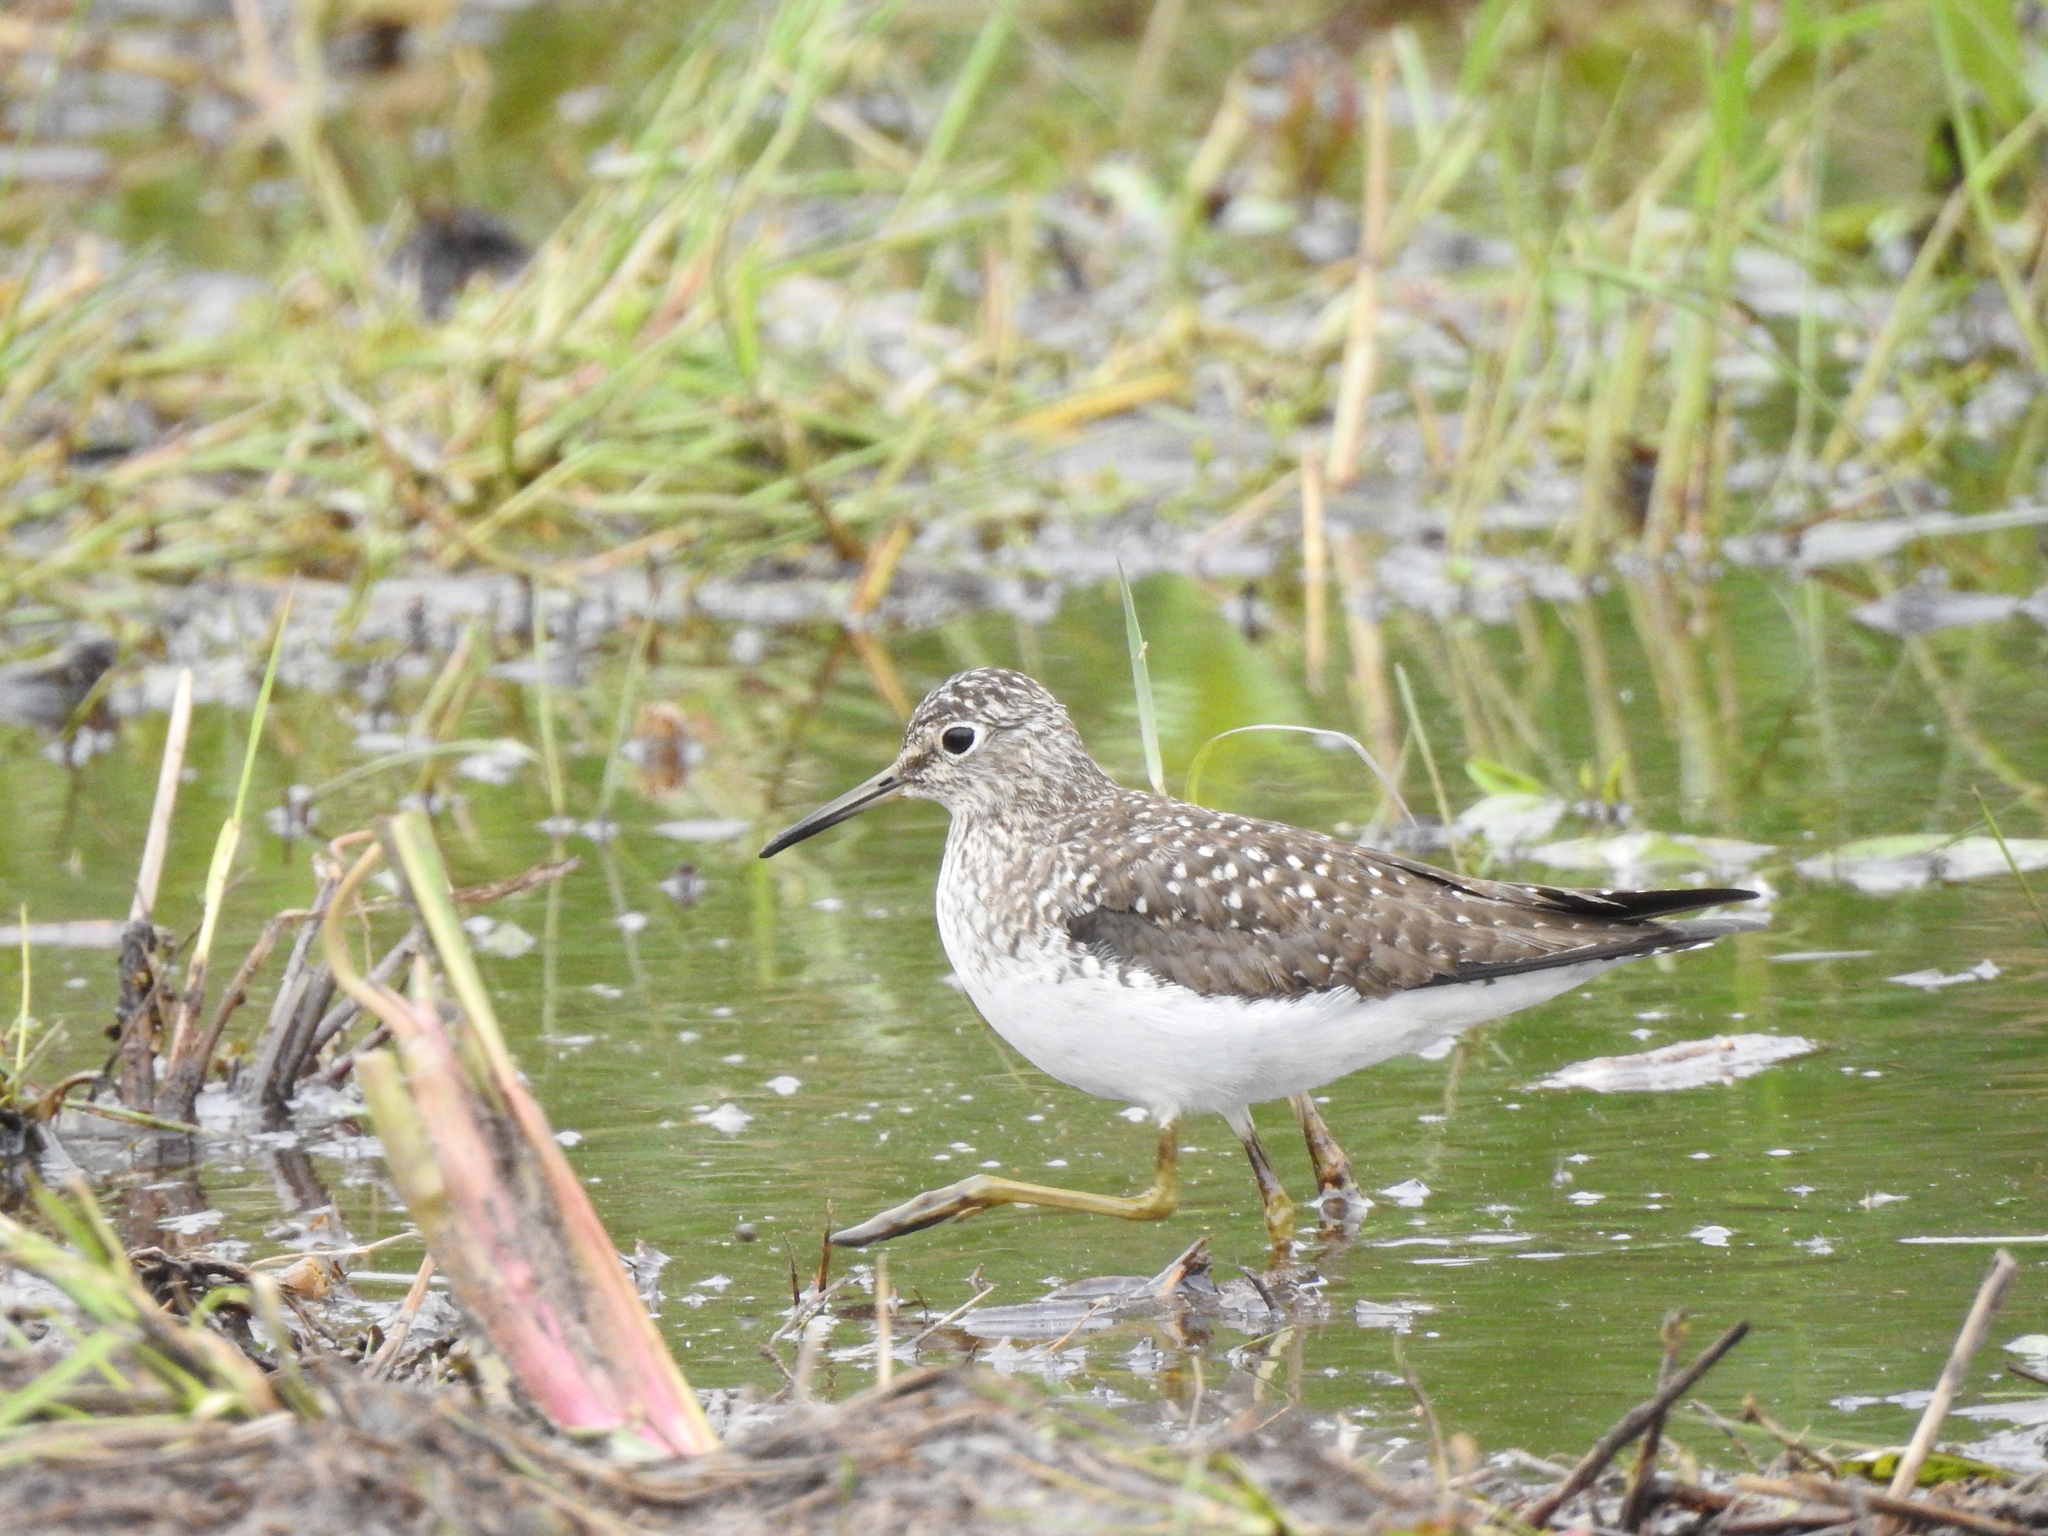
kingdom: Animalia
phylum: Chordata
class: Aves
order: Charadriiformes
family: Scolopacidae
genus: Tringa
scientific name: Tringa solitaria
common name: Solitary sandpiper
